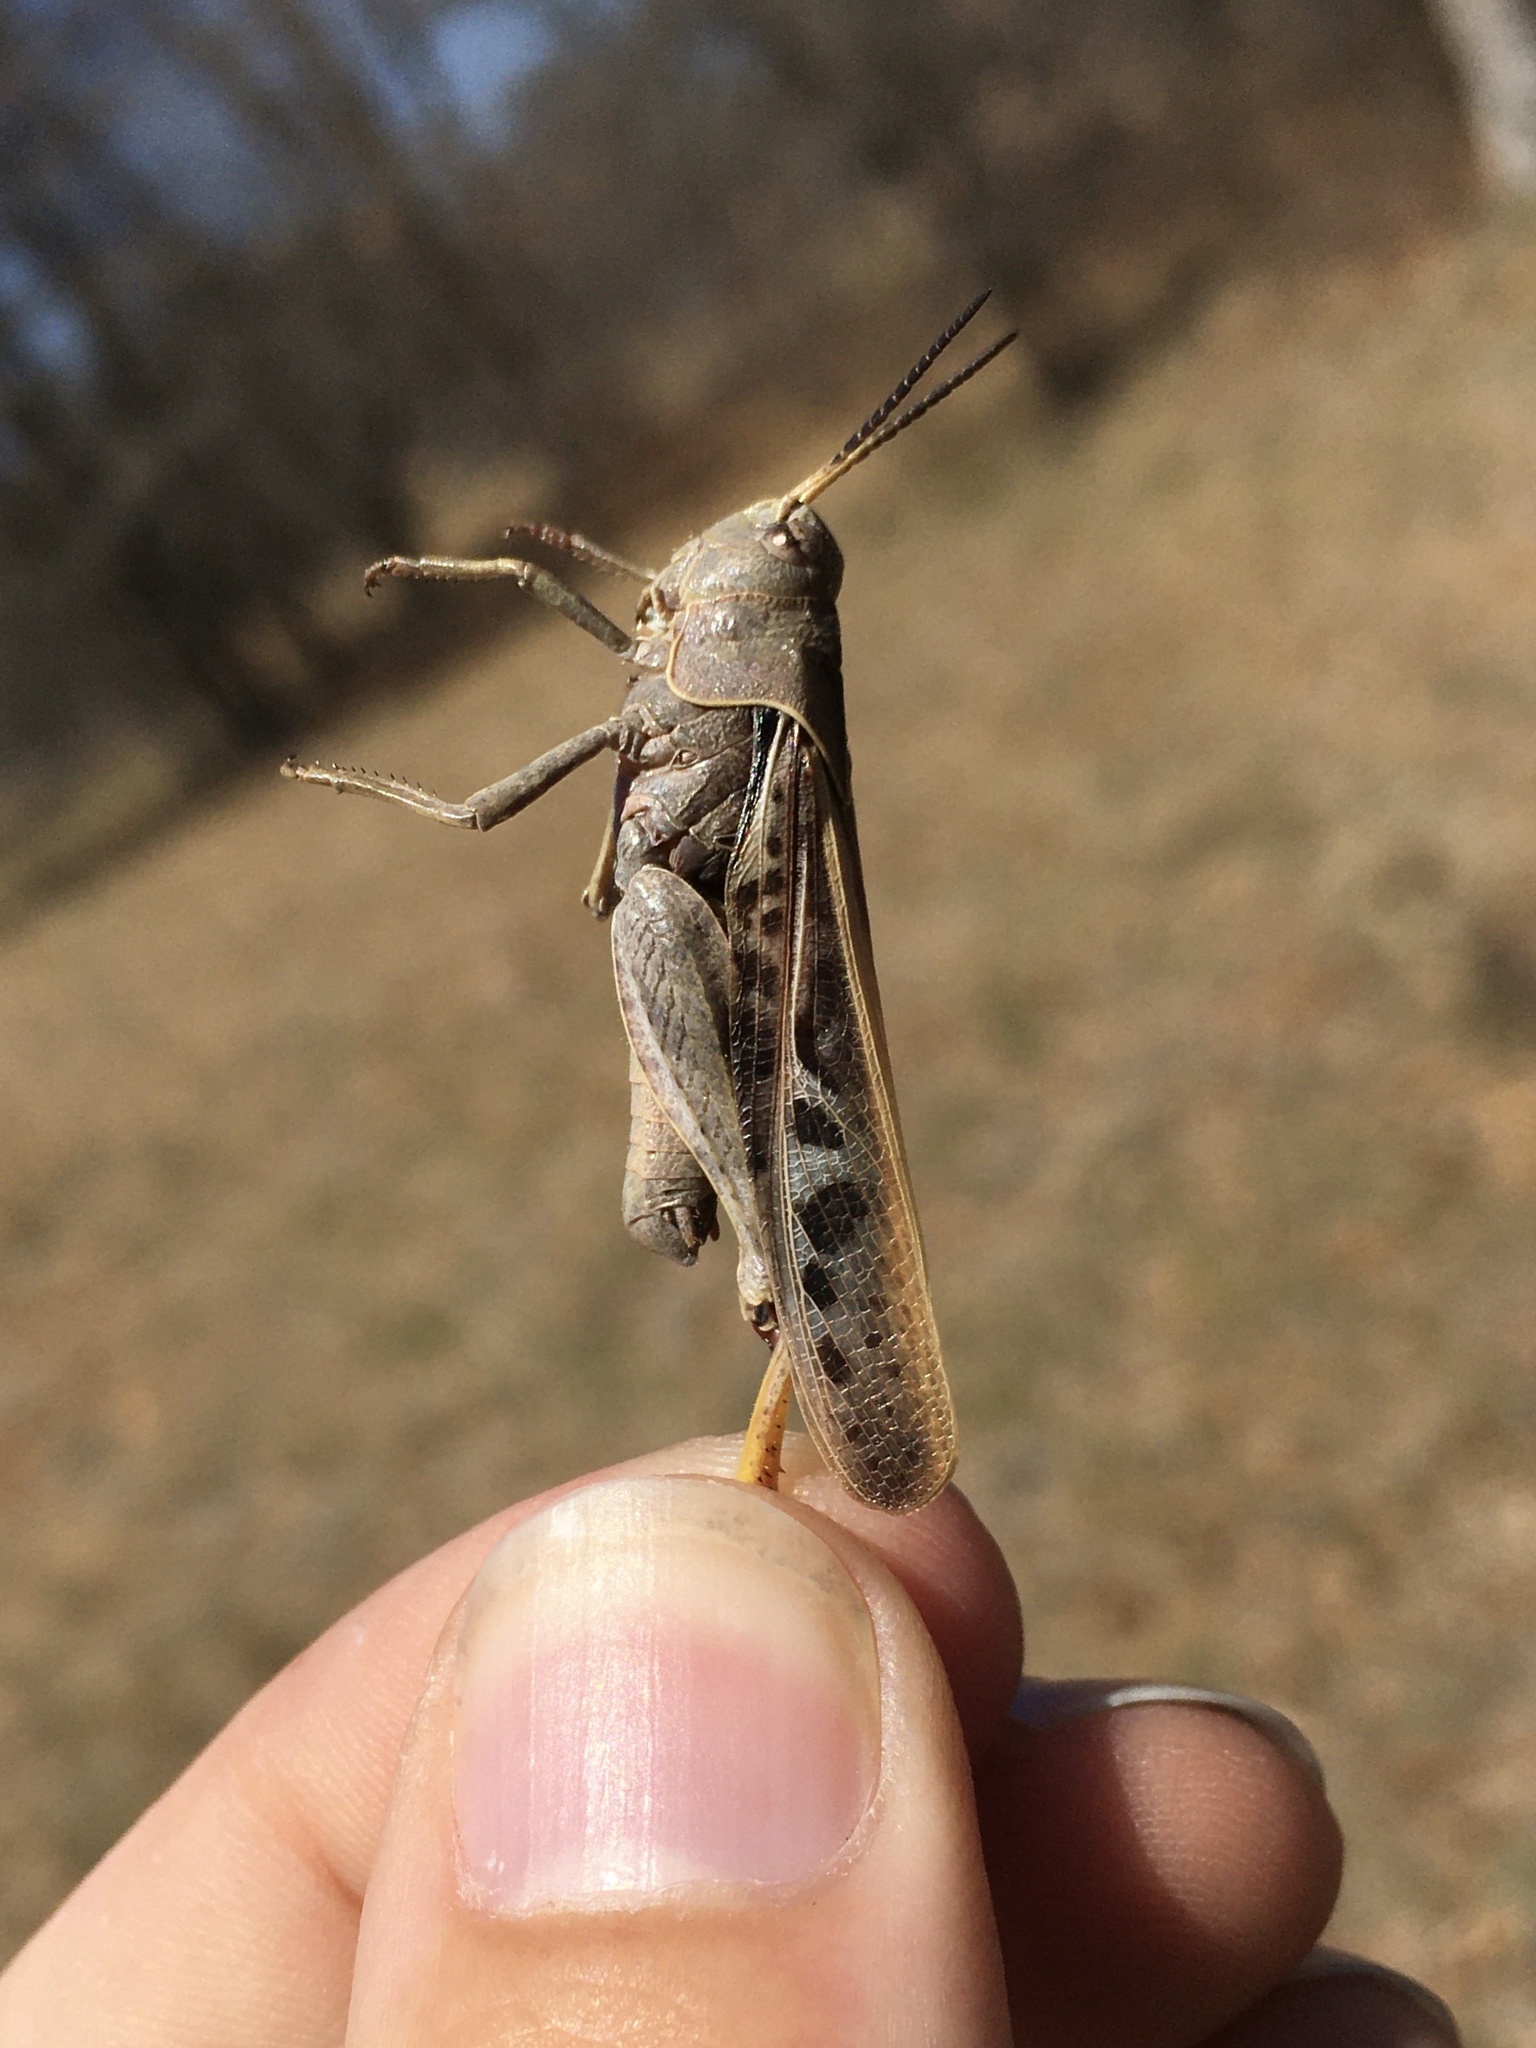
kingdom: Animalia
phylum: Arthropoda
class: Insecta
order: Orthoptera
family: Acrididae
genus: Pardalophora
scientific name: Pardalophora apiculata
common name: Coral-winged locust
